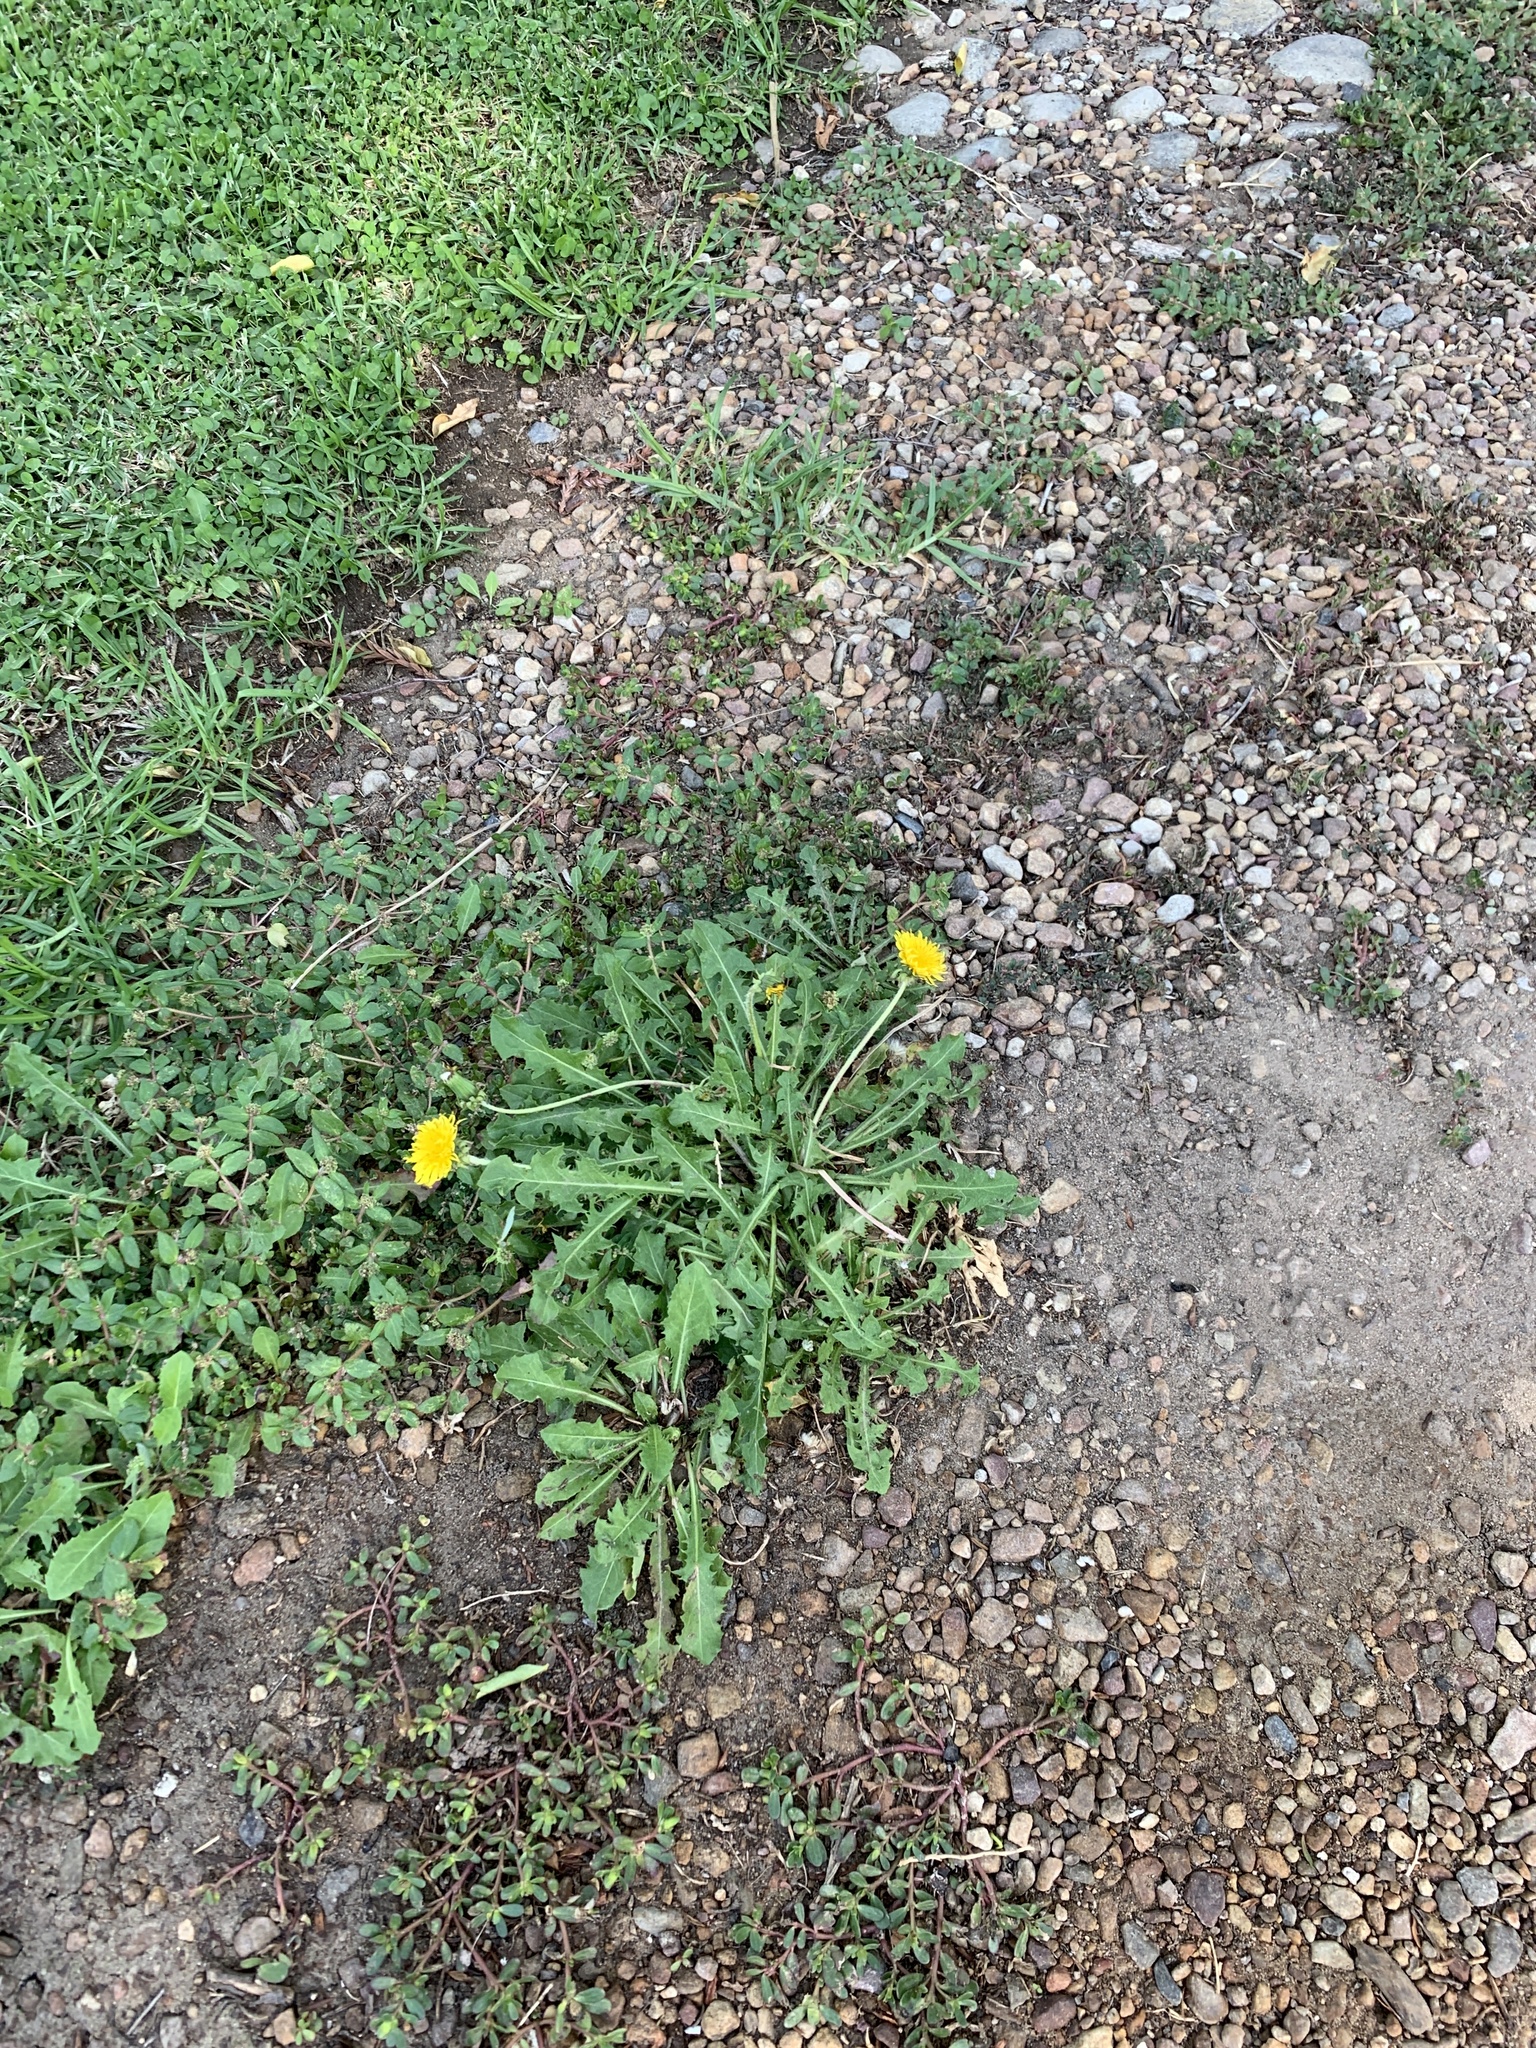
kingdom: Plantae
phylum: Tracheophyta
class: Magnoliopsida
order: Asterales
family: Asteraceae
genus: Taraxacum
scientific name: Taraxacum officinale
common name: Common dandelion
